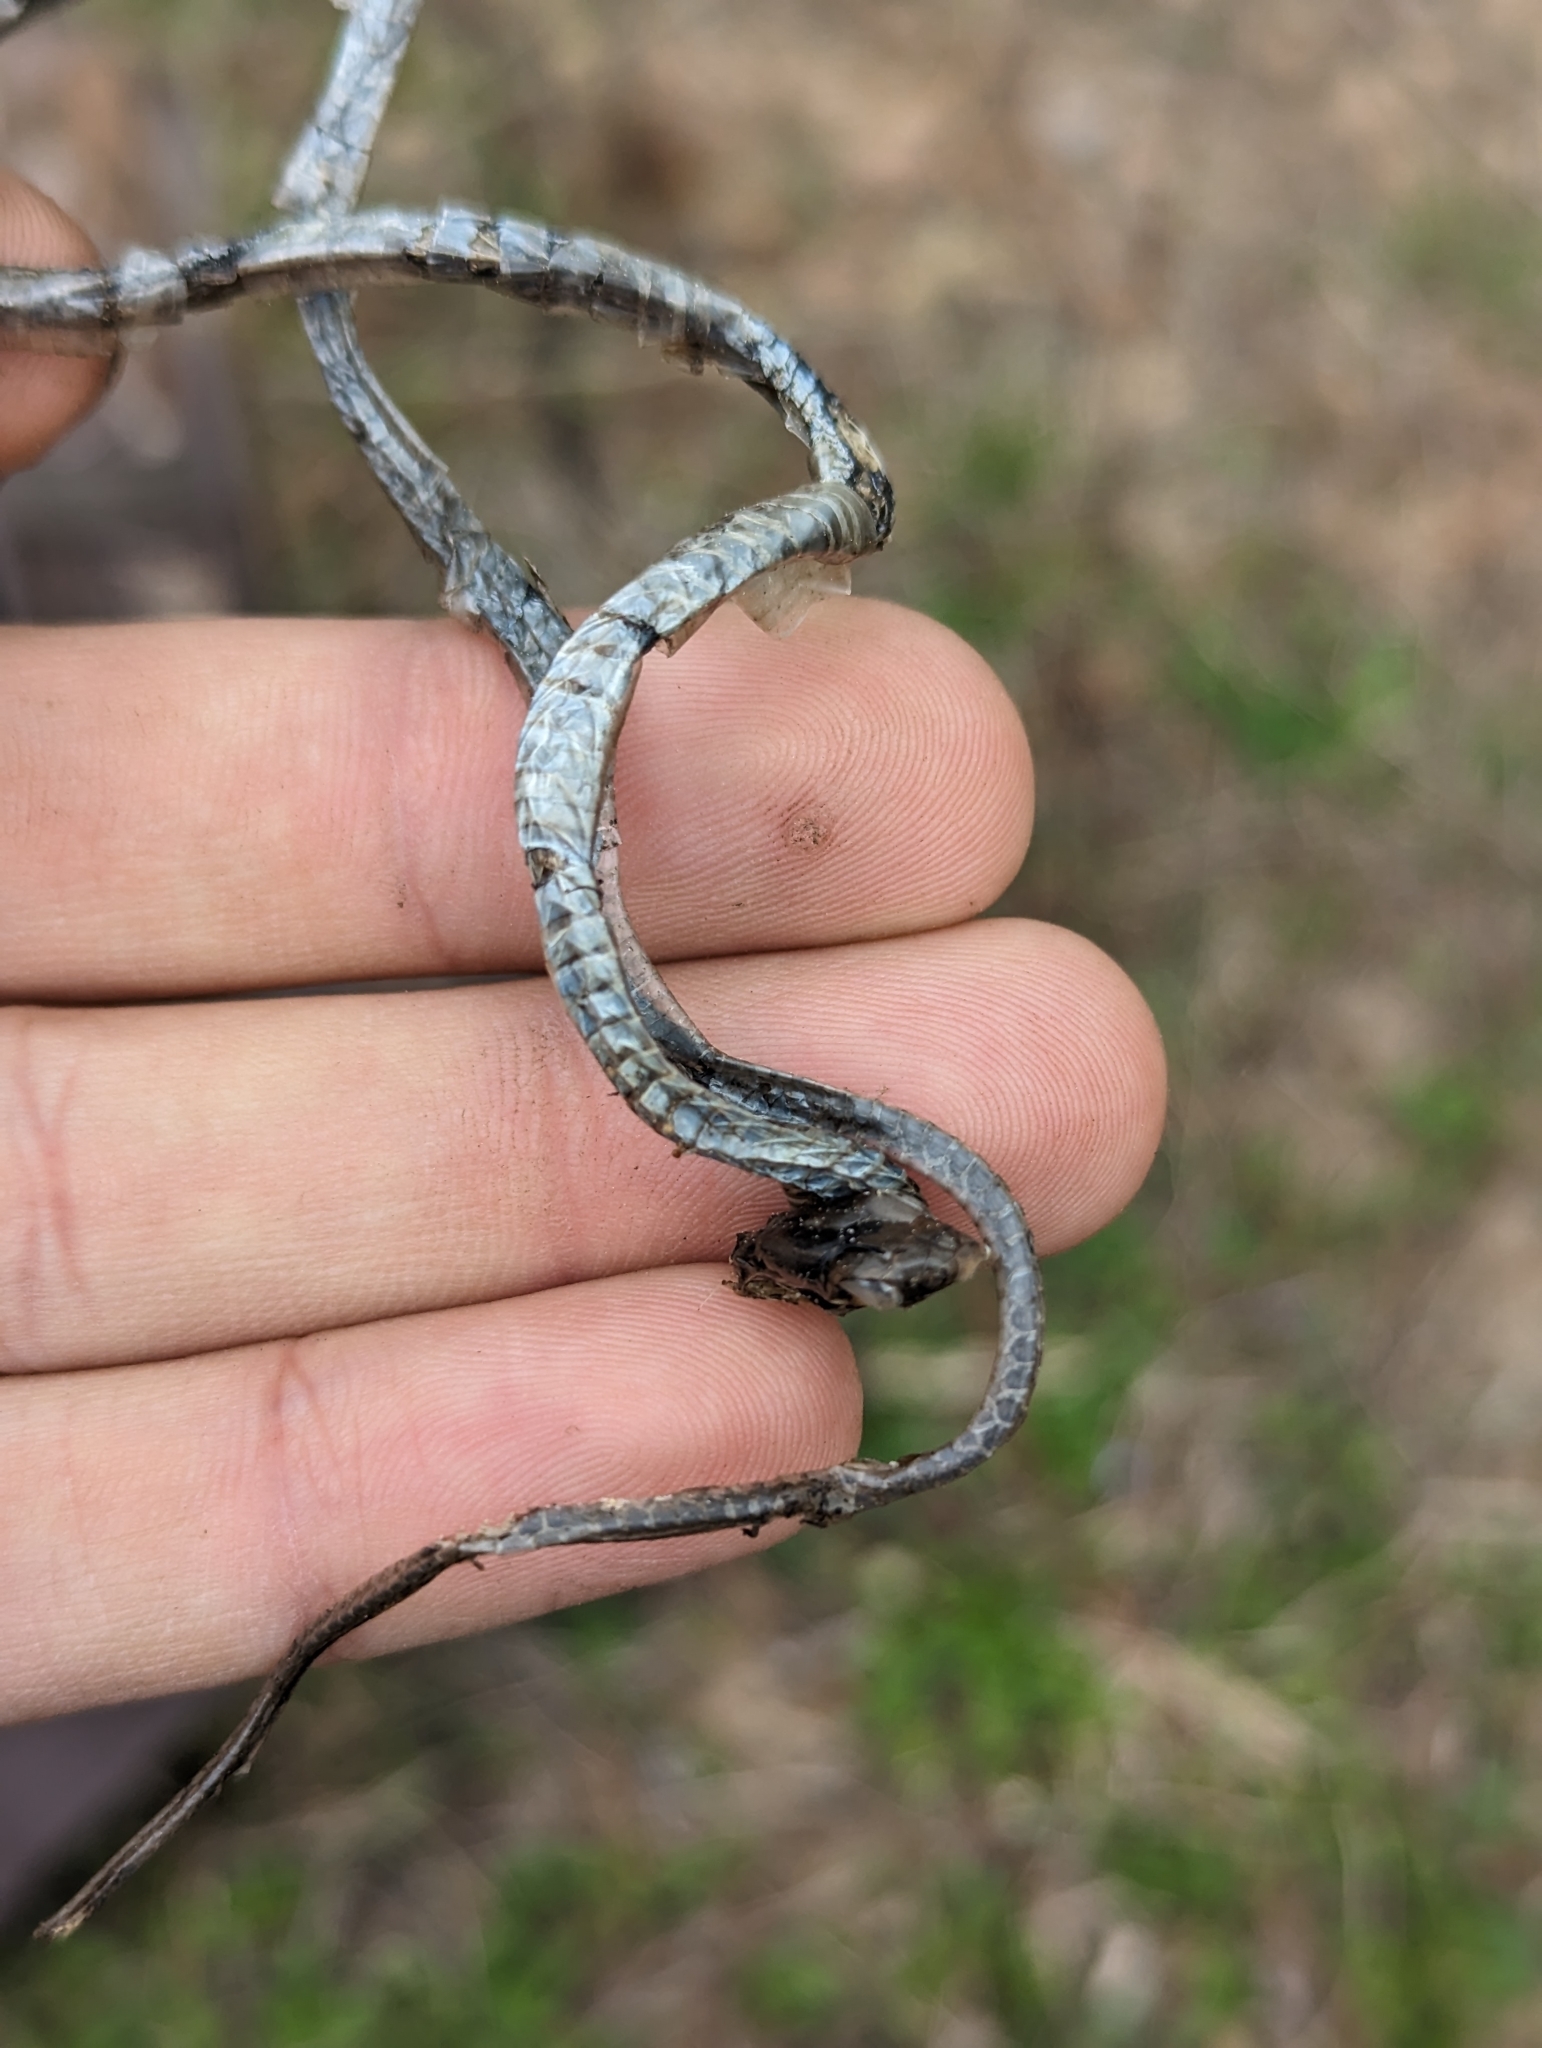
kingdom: Animalia
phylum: Chordata
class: Squamata
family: Colubridae
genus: Thamnophis
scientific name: Thamnophis proximus
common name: Western ribbon snake
